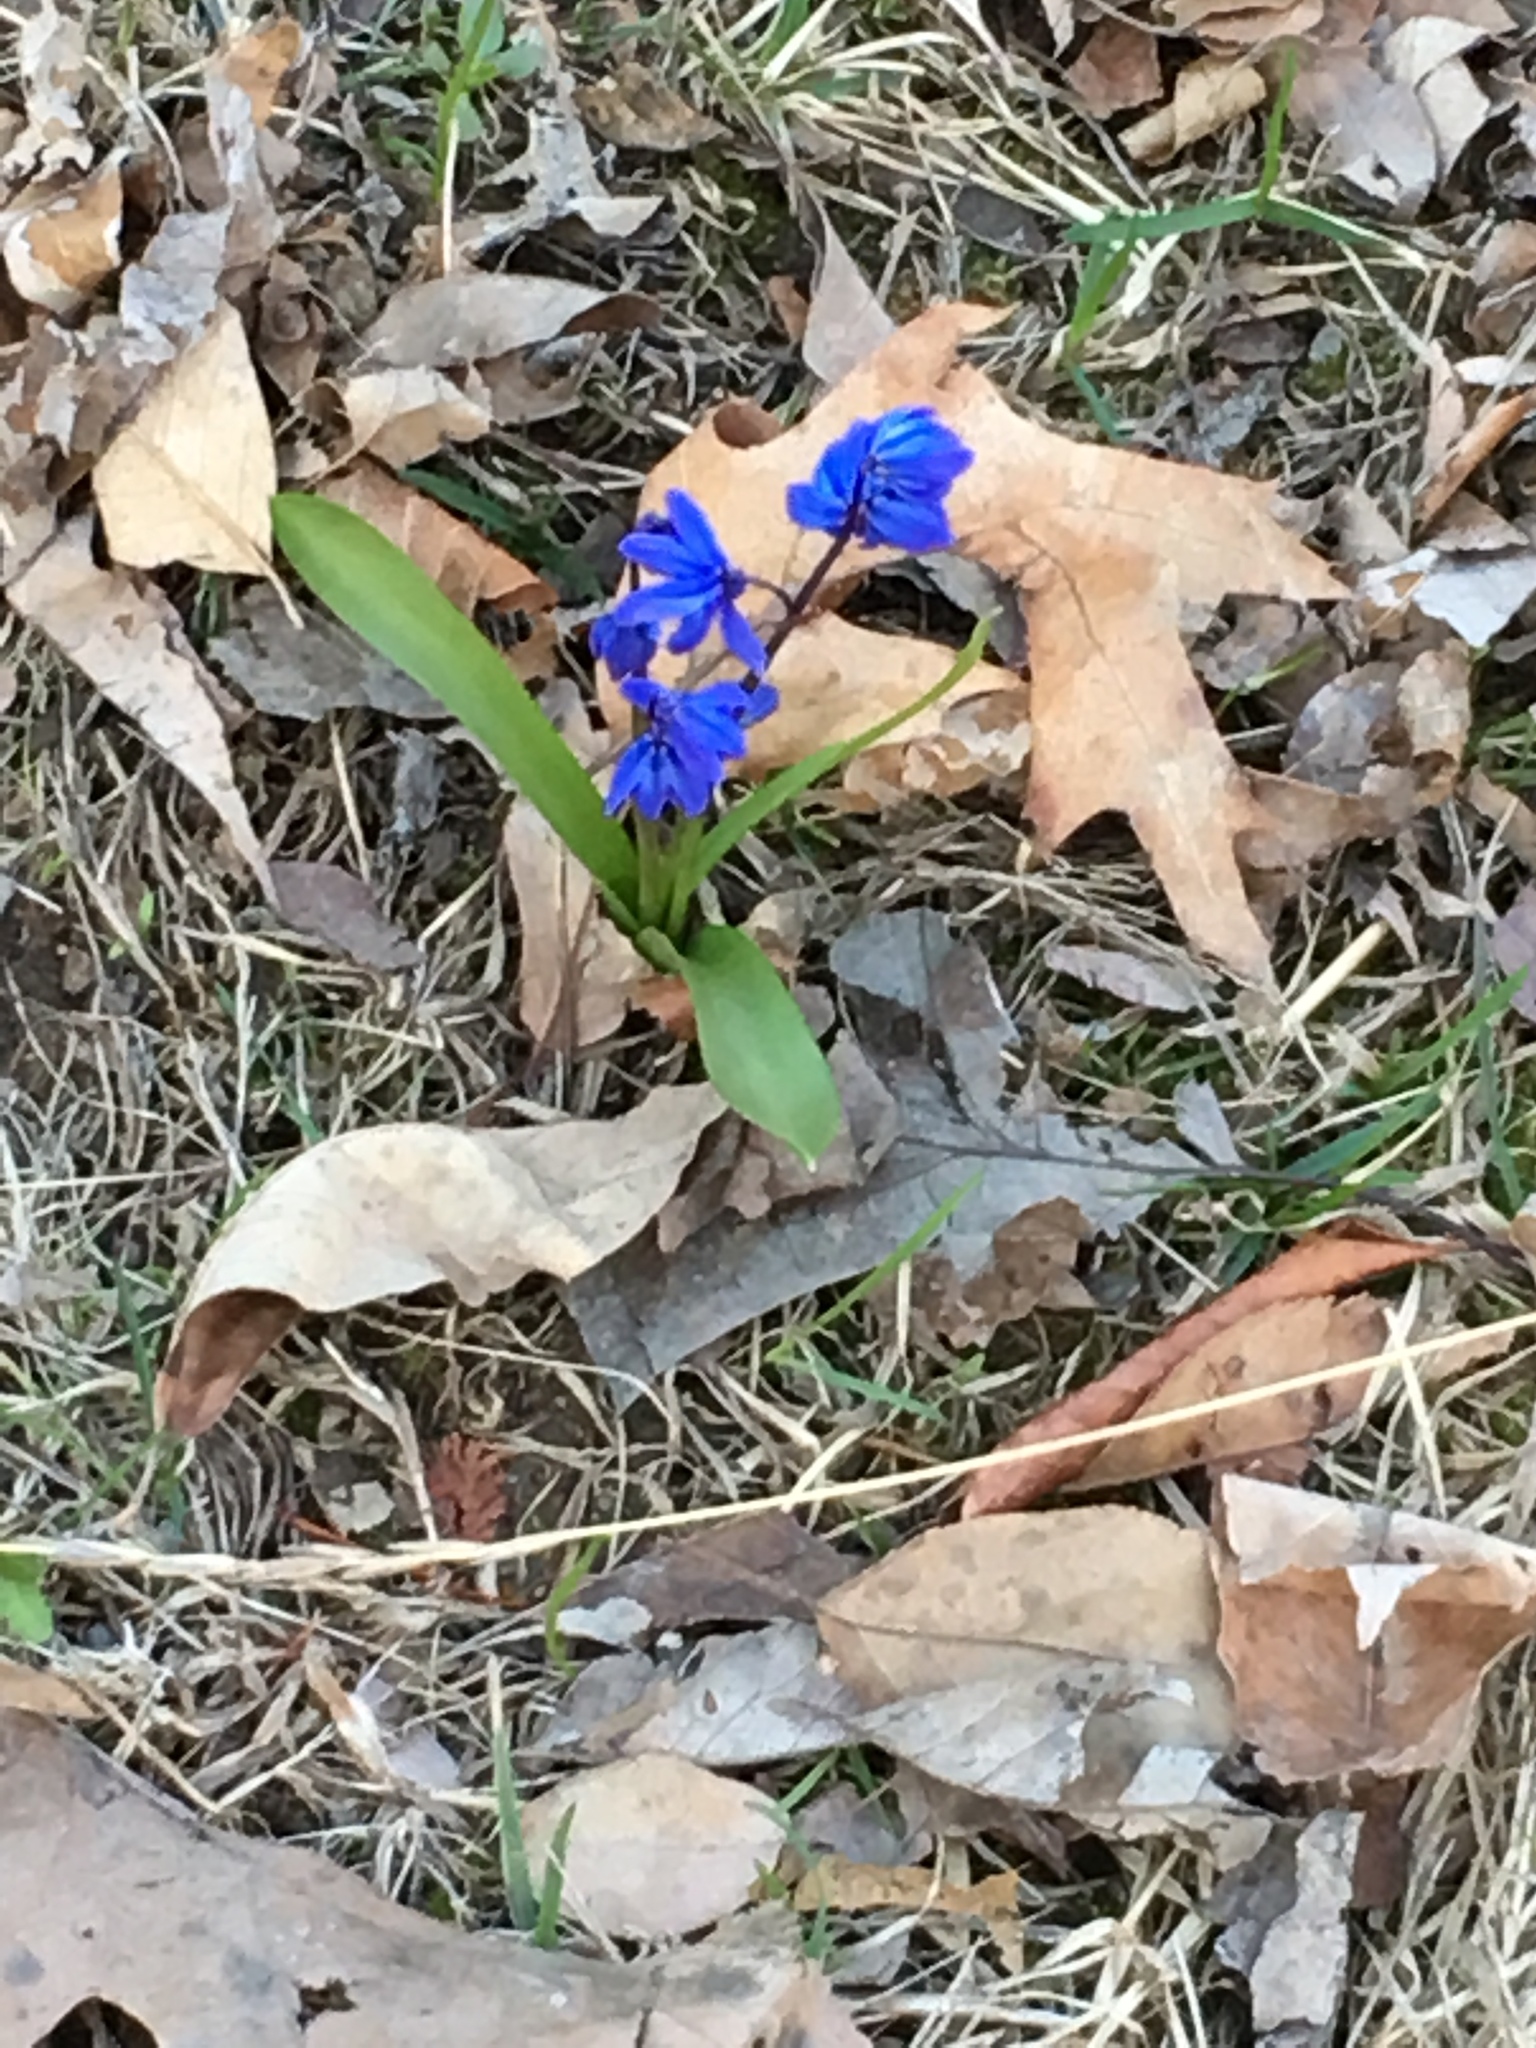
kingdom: Plantae
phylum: Tracheophyta
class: Liliopsida
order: Asparagales
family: Asparagaceae
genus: Scilla
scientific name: Scilla siberica
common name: Siberian squill
